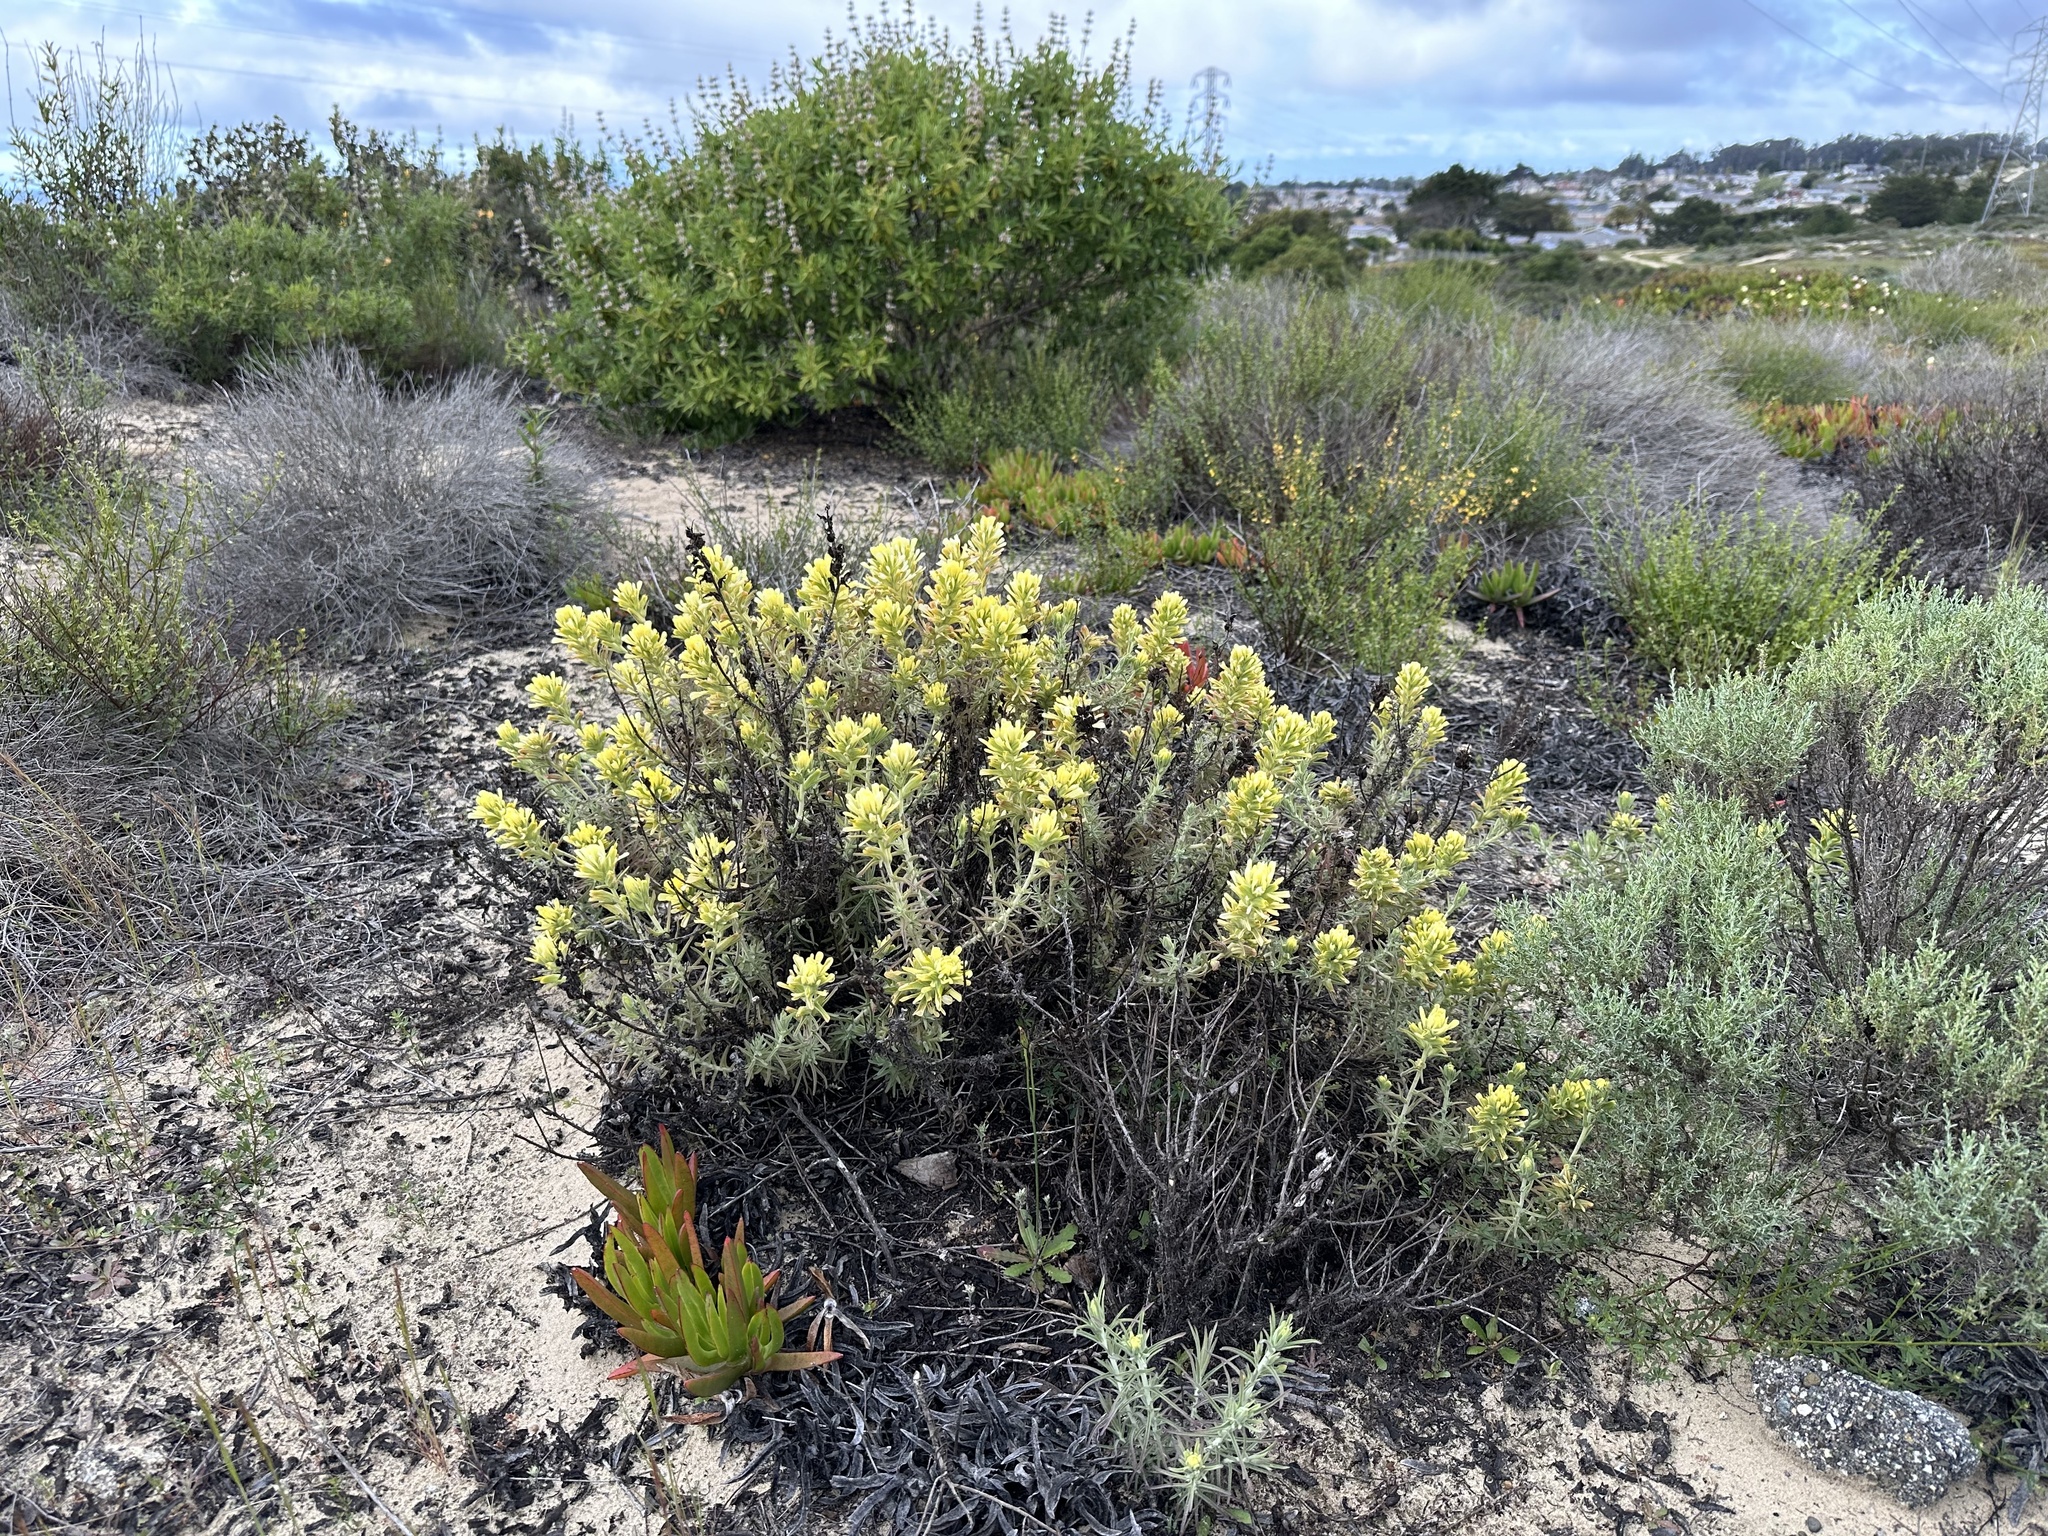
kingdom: Plantae
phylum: Tracheophyta
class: Magnoliopsida
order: Lamiales
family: Orobanchaceae
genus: Castilleja
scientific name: Castilleja foliolosa
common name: Woolly indian paintbrush
